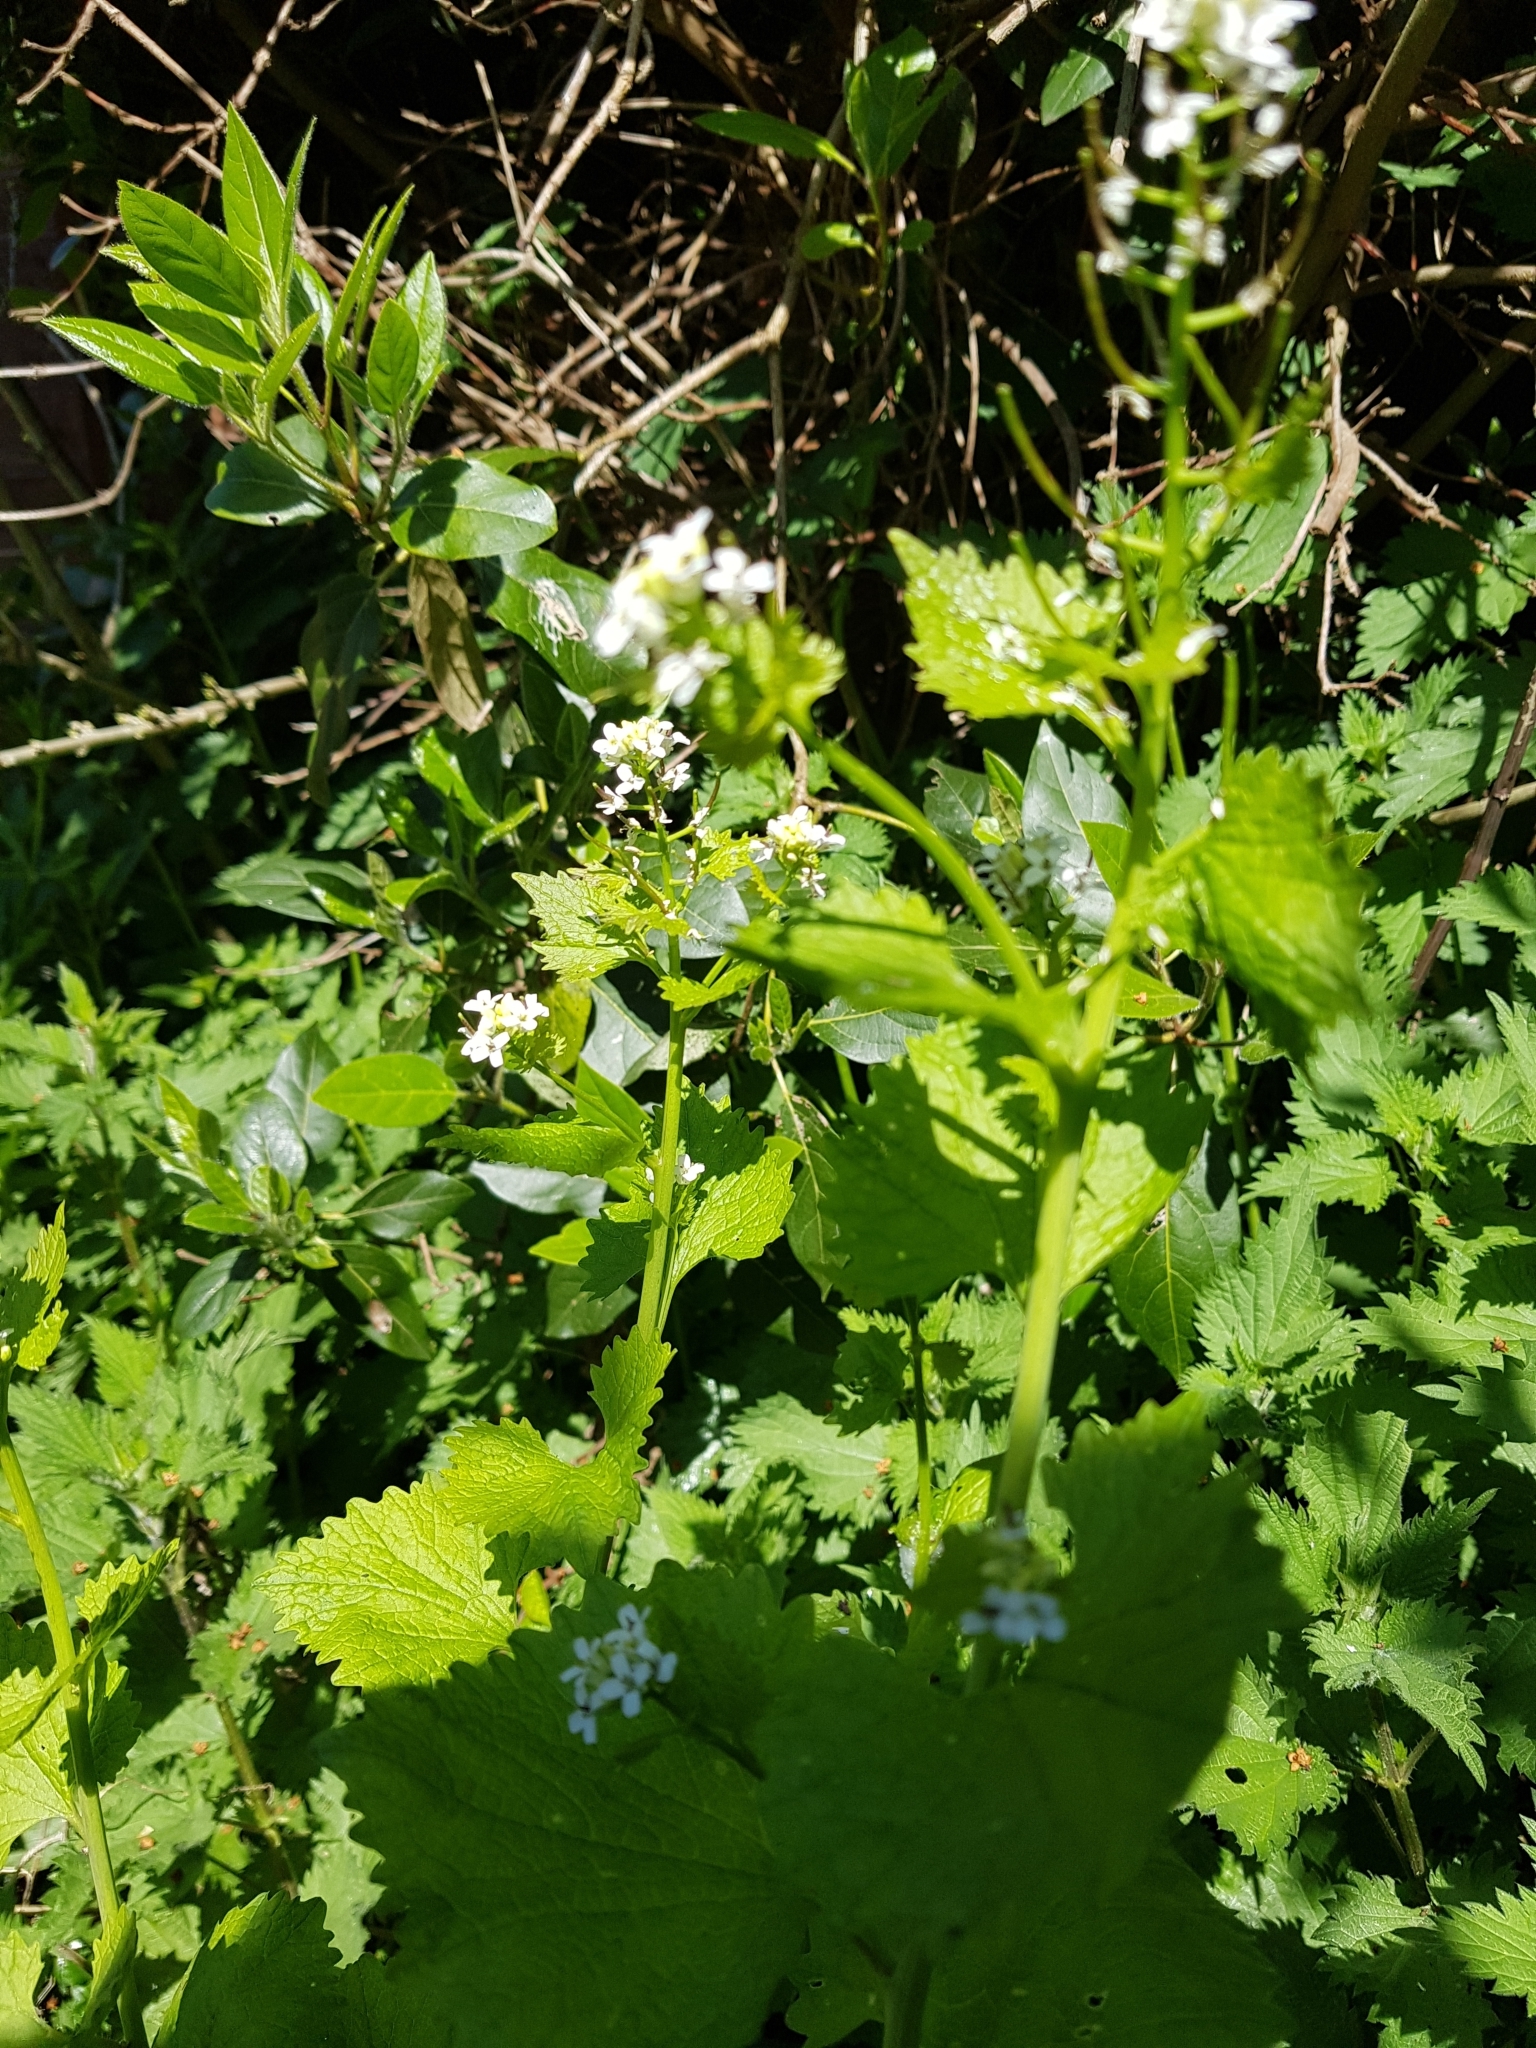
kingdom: Plantae
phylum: Tracheophyta
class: Magnoliopsida
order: Brassicales
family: Brassicaceae
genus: Alliaria
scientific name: Alliaria petiolata
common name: Garlic mustard
